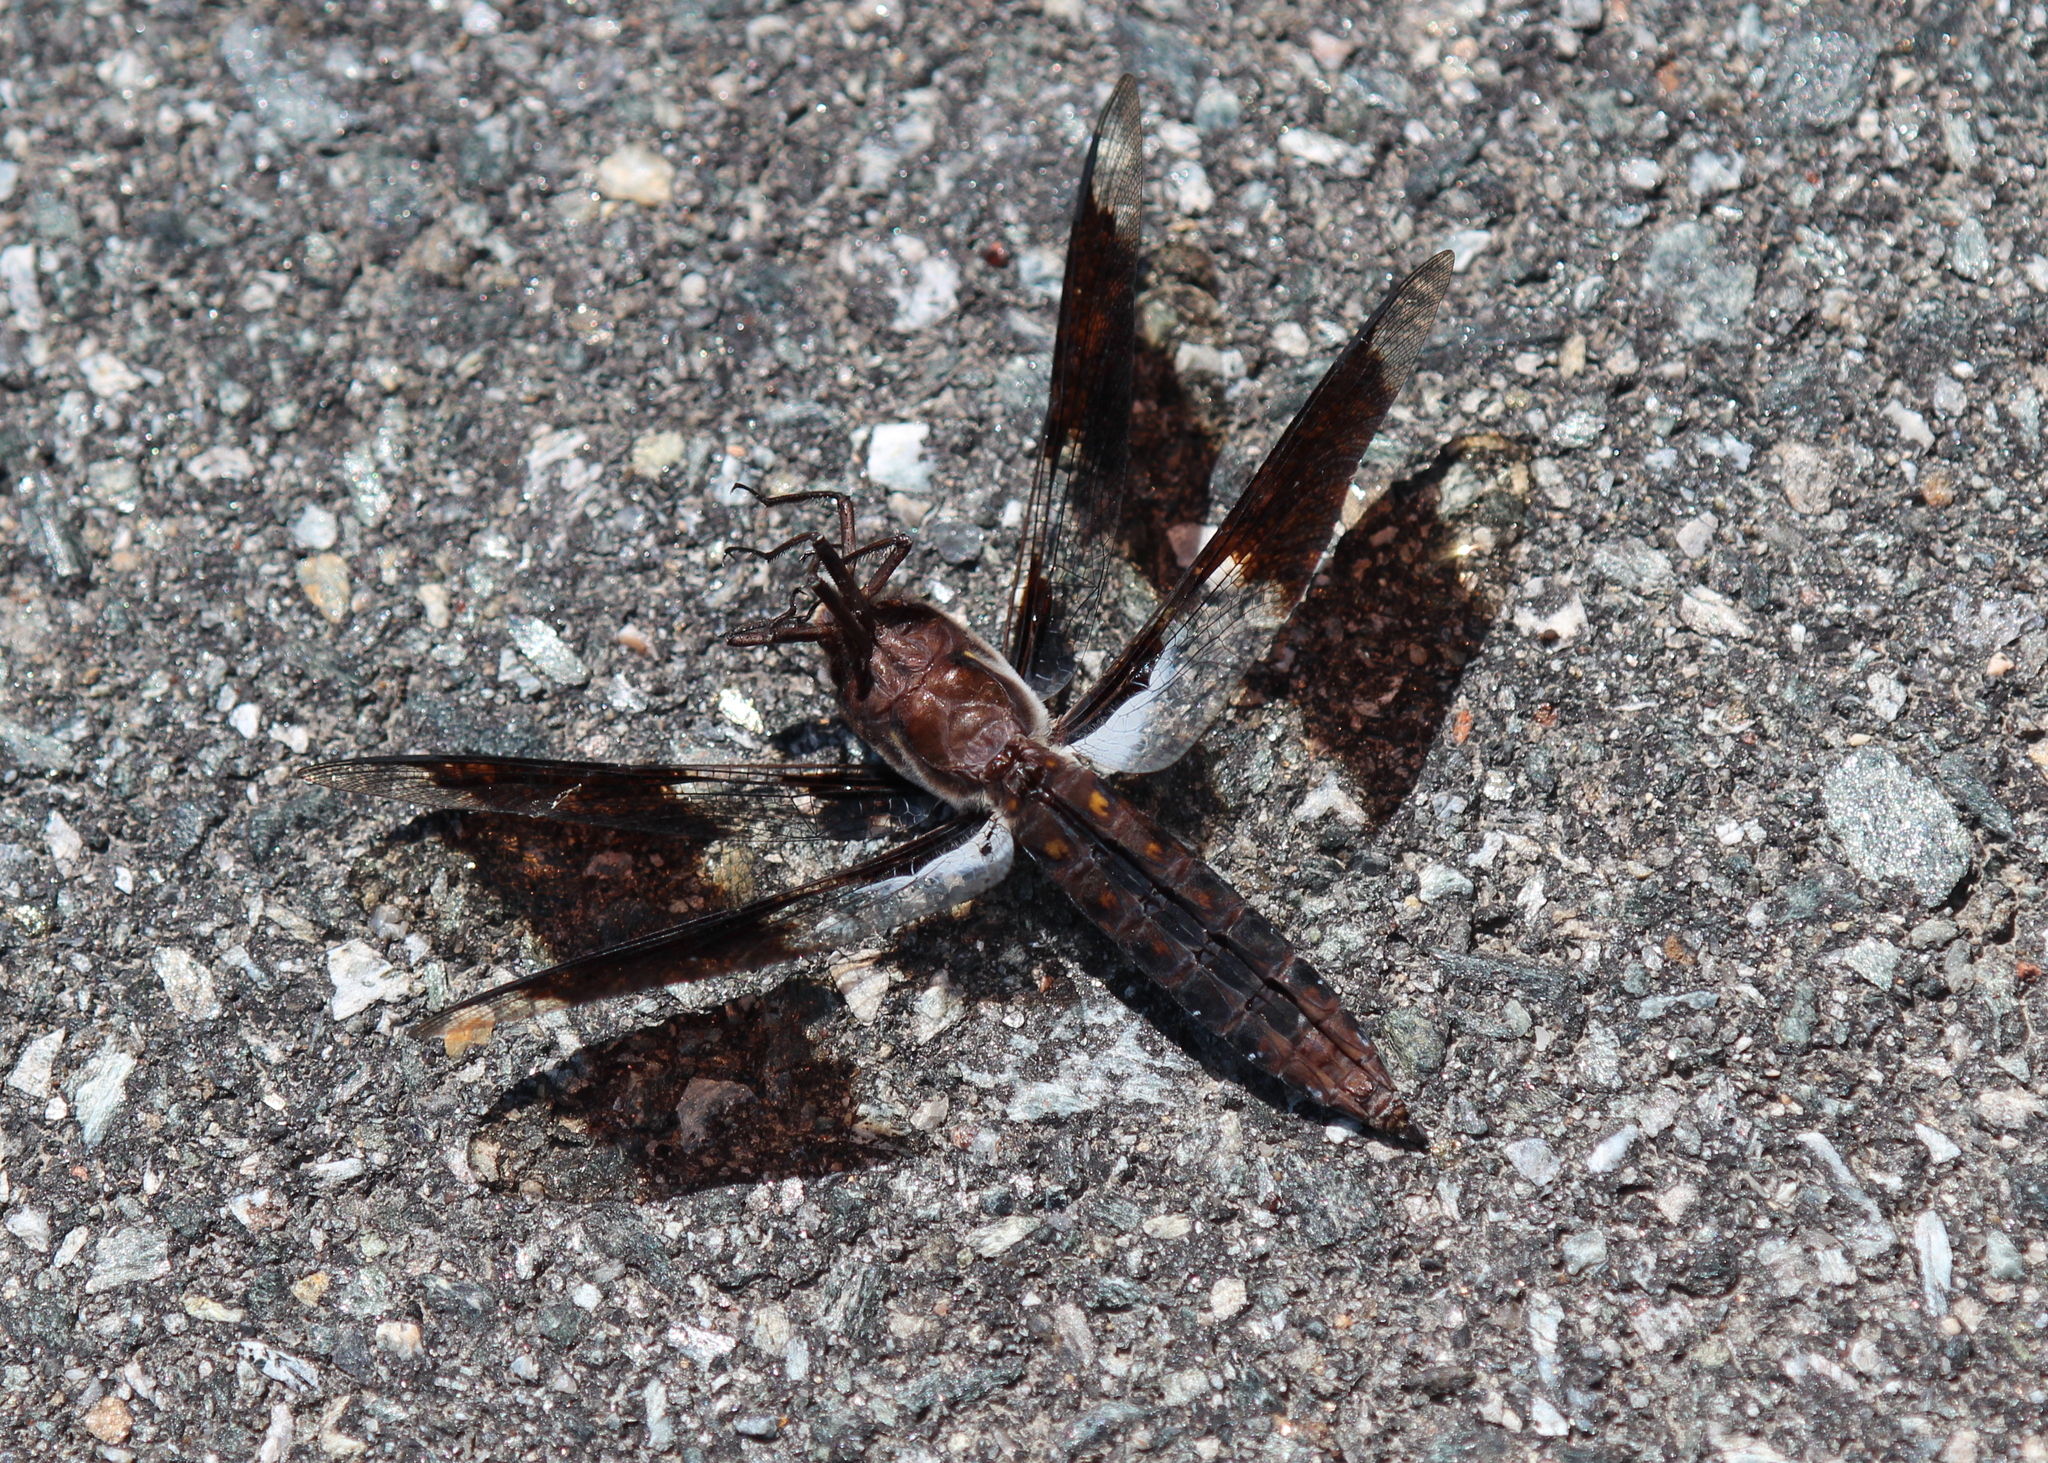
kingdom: Animalia
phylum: Arthropoda
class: Insecta
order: Odonata
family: Libellulidae
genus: Plathemis
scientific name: Plathemis lydia
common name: Common whitetail
